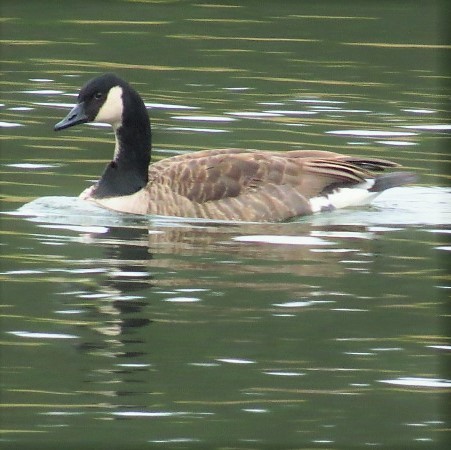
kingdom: Animalia
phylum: Chordata
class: Aves
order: Anseriformes
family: Anatidae
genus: Branta
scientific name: Branta canadensis
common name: Canada goose
